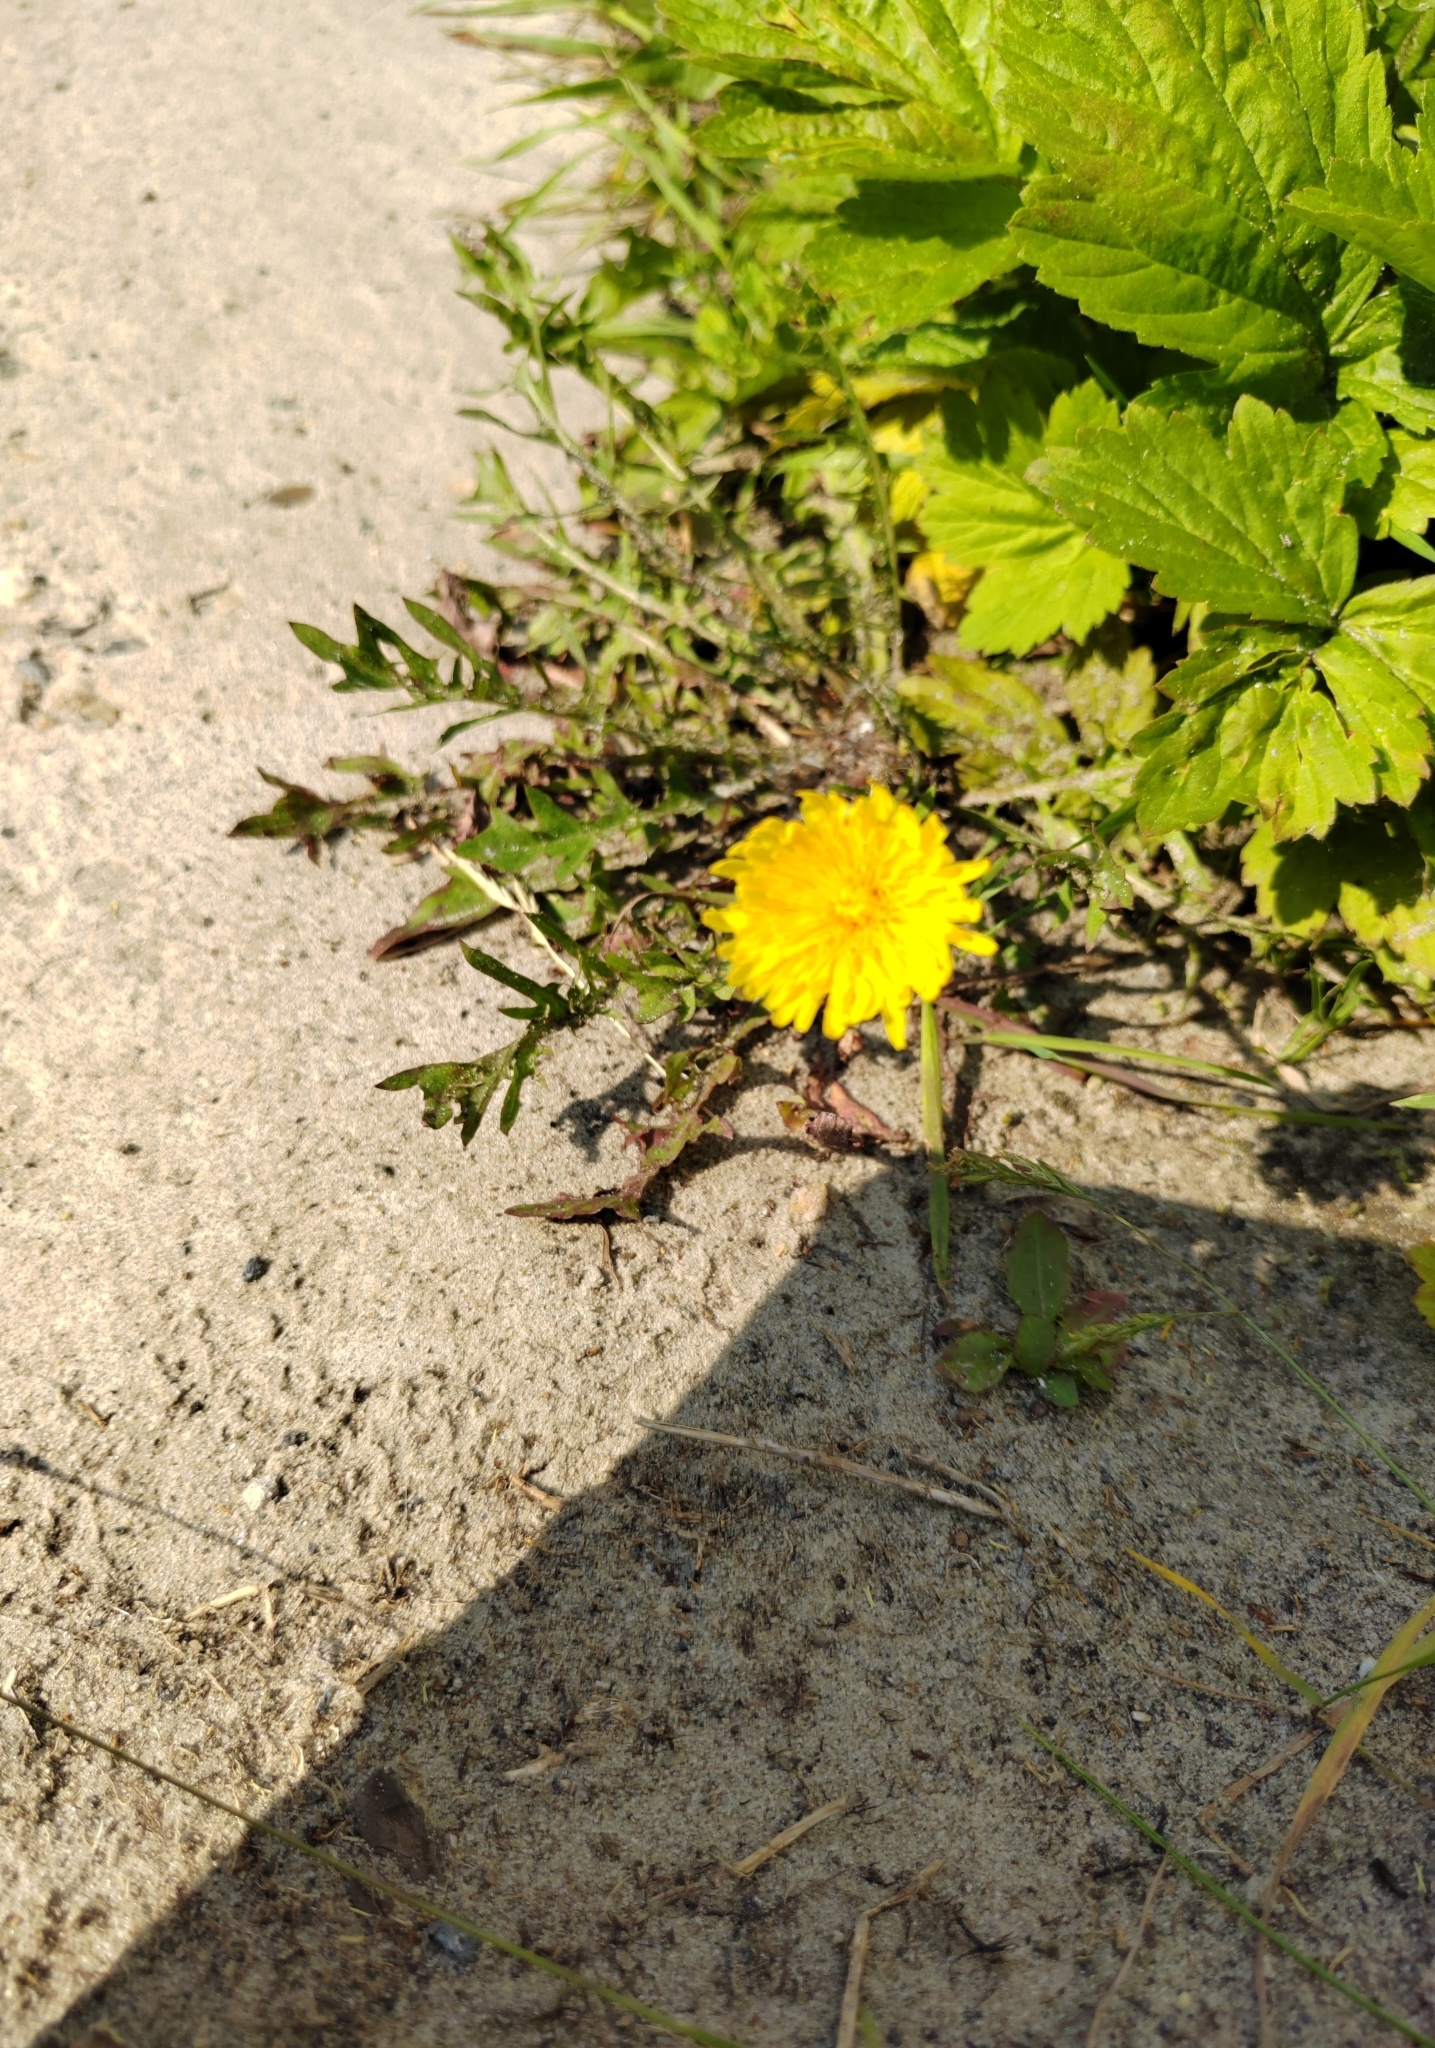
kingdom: Plantae
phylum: Tracheophyta
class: Magnoliopsida
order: Asterales
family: Asteraceae
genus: Taraxacum
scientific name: Taraxacum scariosum
